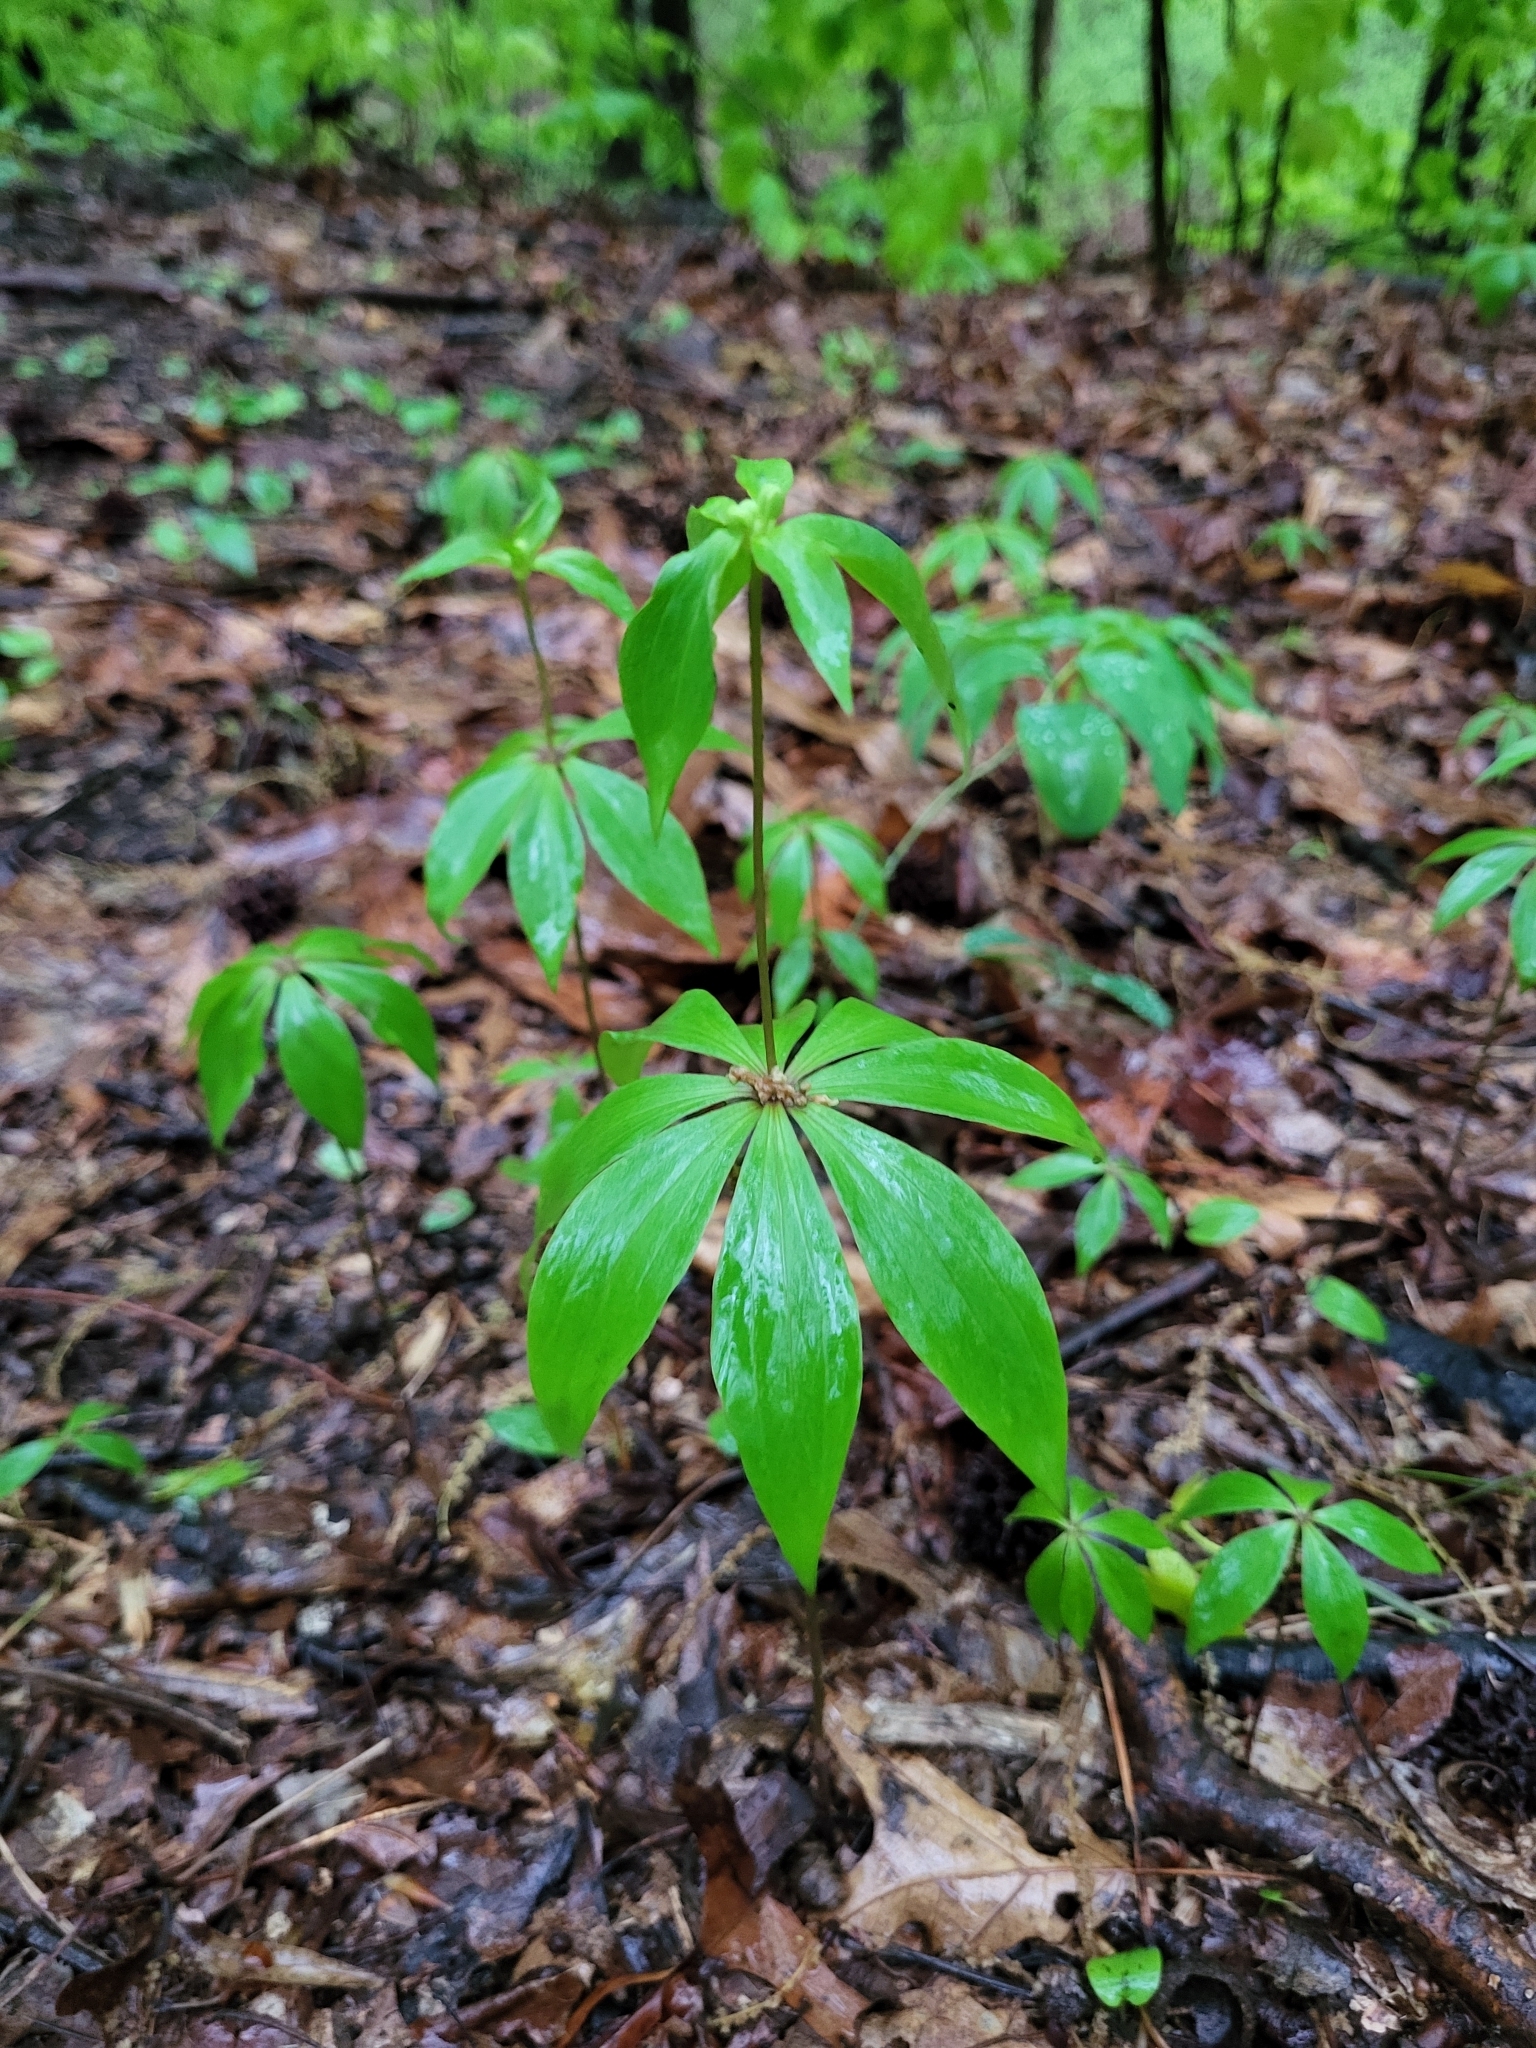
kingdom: Plantae
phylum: Tracheophyta
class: Liliopsida
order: Liliales
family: Liliaceae
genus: Medeola
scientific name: Medeola virginiana
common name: Indian cucumber-root
